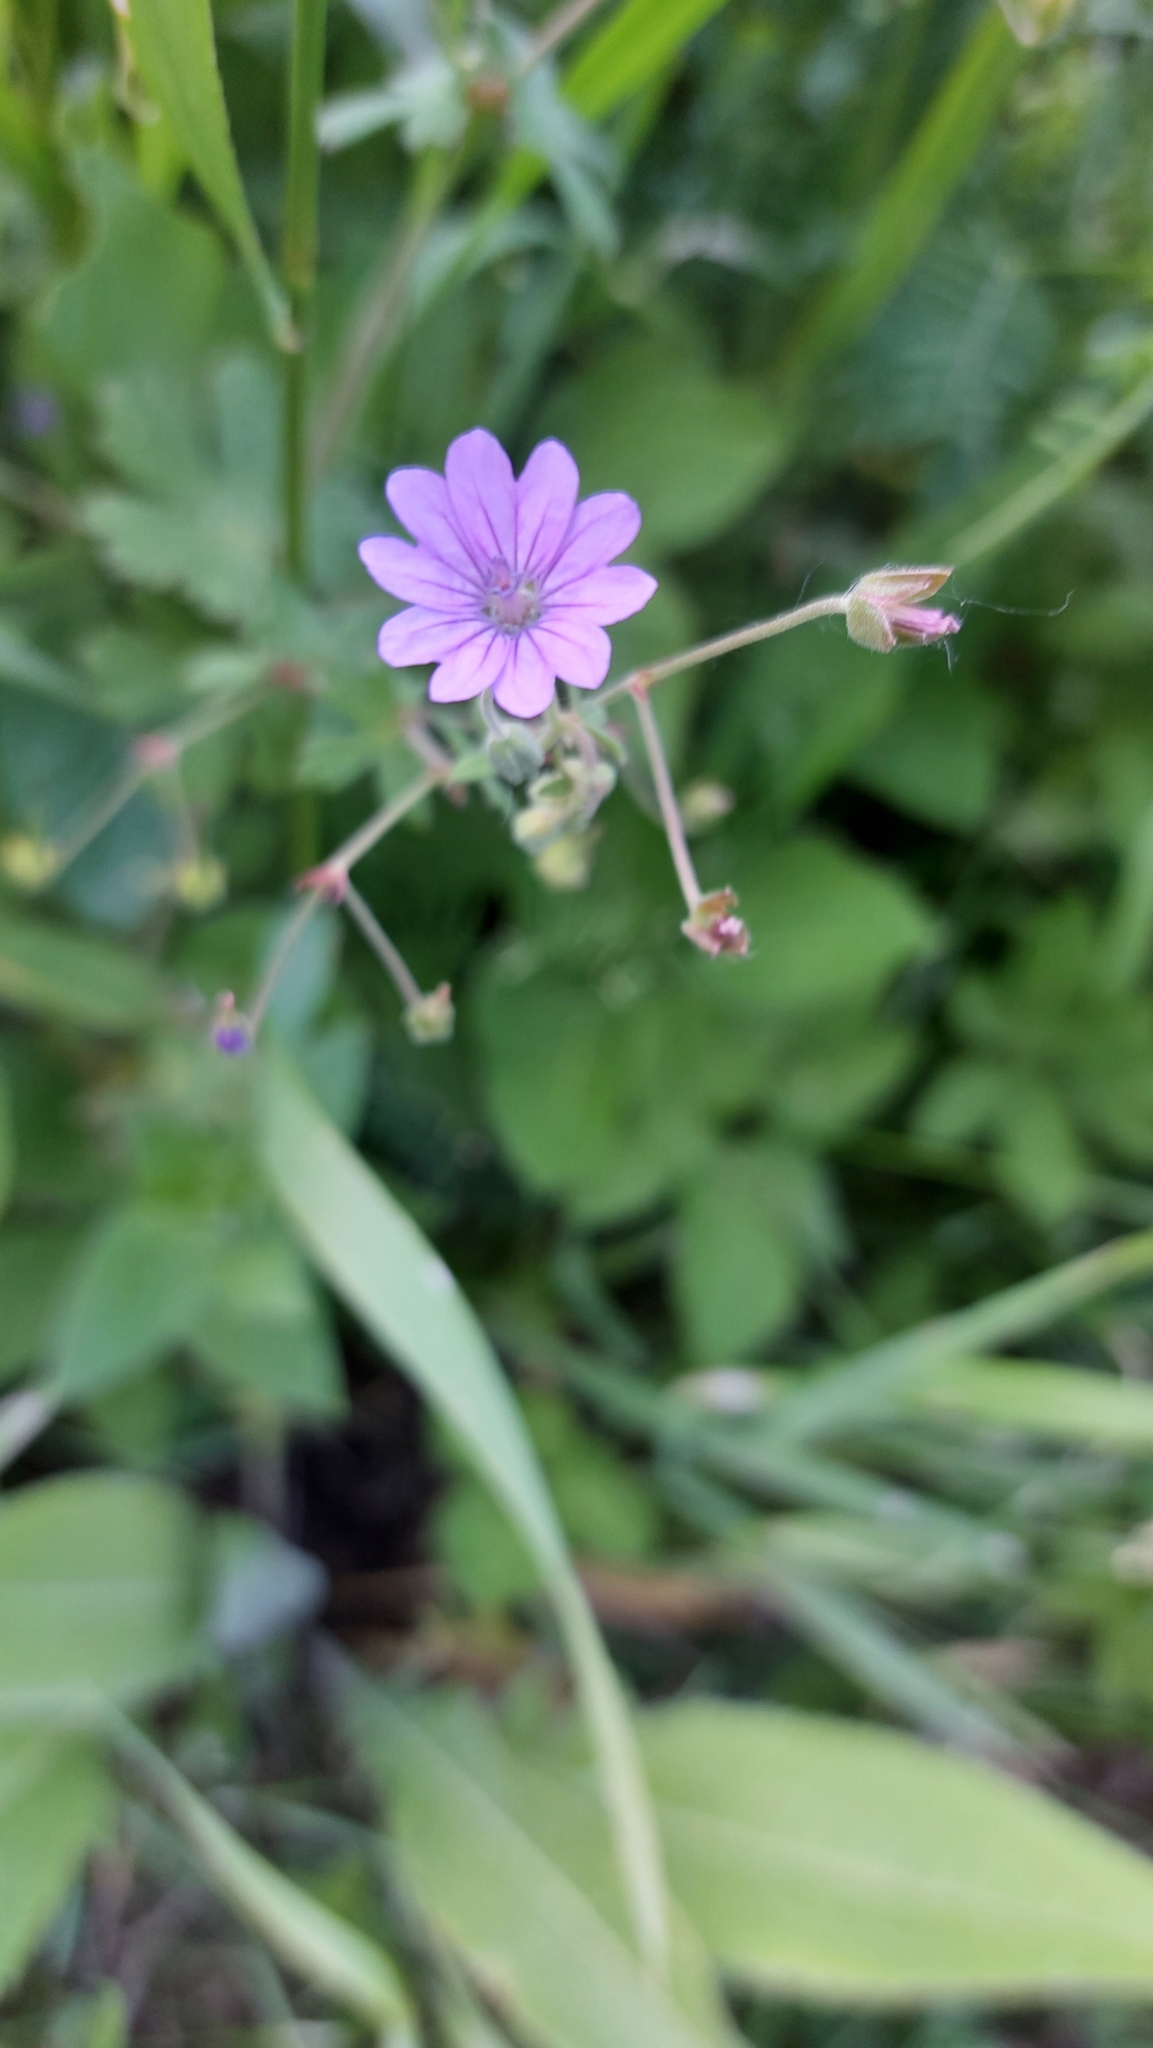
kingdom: Plantae
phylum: Tracheophyta
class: Magnoliopsida
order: Geraniales
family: Geraniaceae
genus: Geranium
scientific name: Geranium pyrenaicum
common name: Hedgerow crane's-bill
